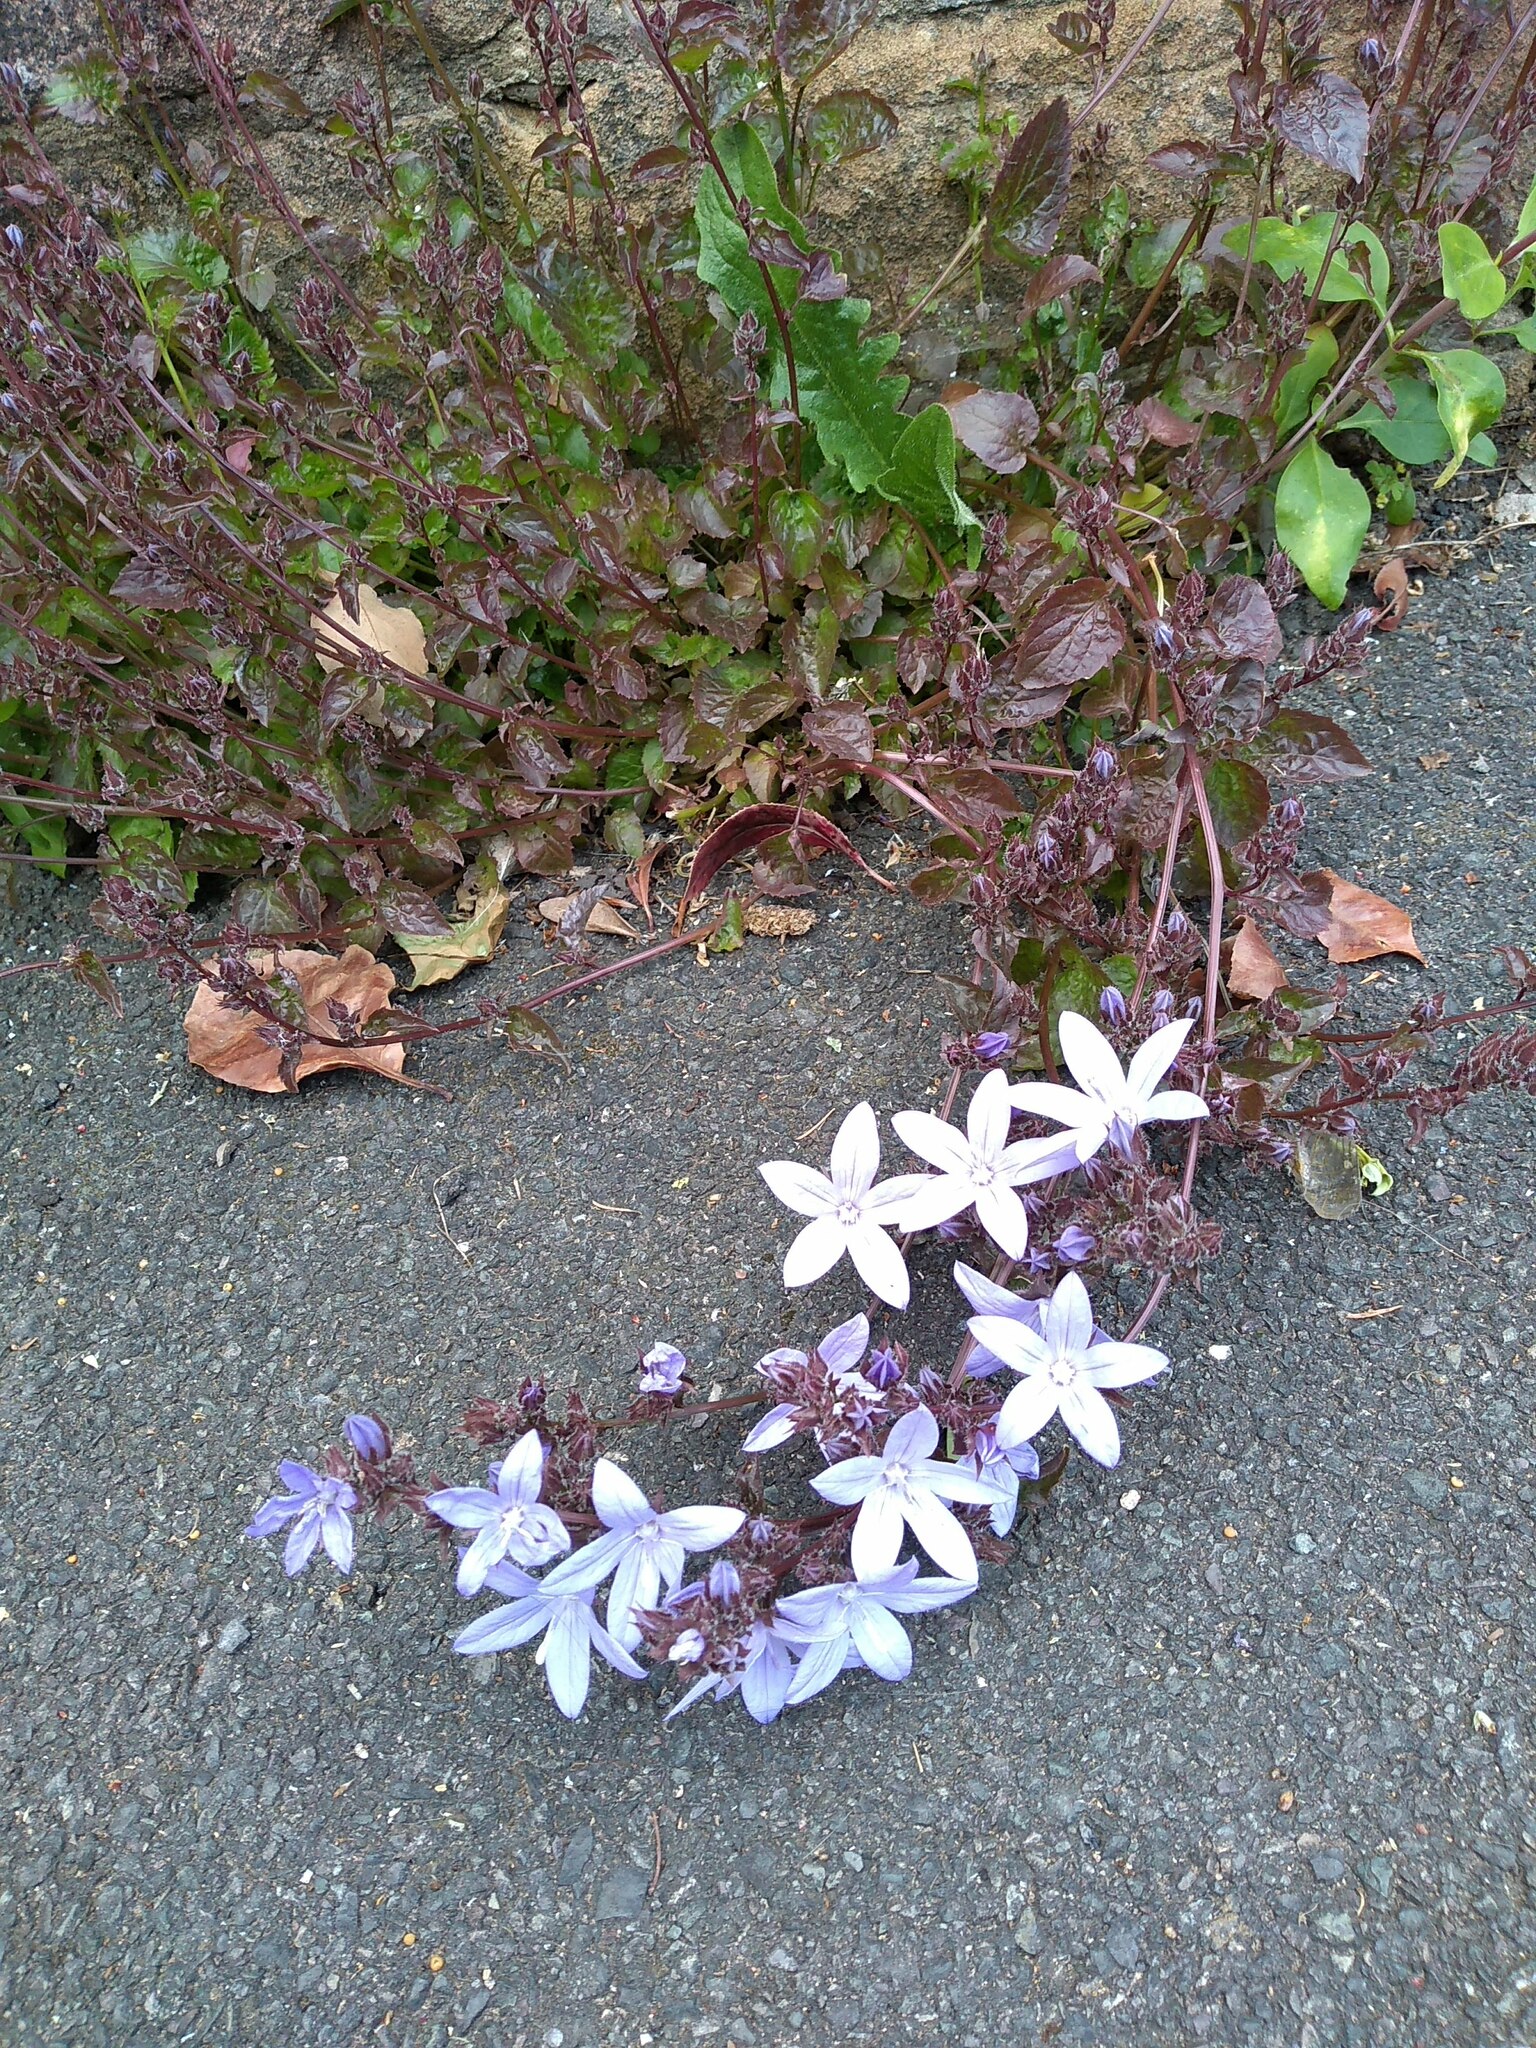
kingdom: Plantae
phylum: Tracheophyta
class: Magnoliopsida
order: Asterales
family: Campanulaceae
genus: Campanula
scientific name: Campanula poscharskyana
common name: Trailing bellflower
